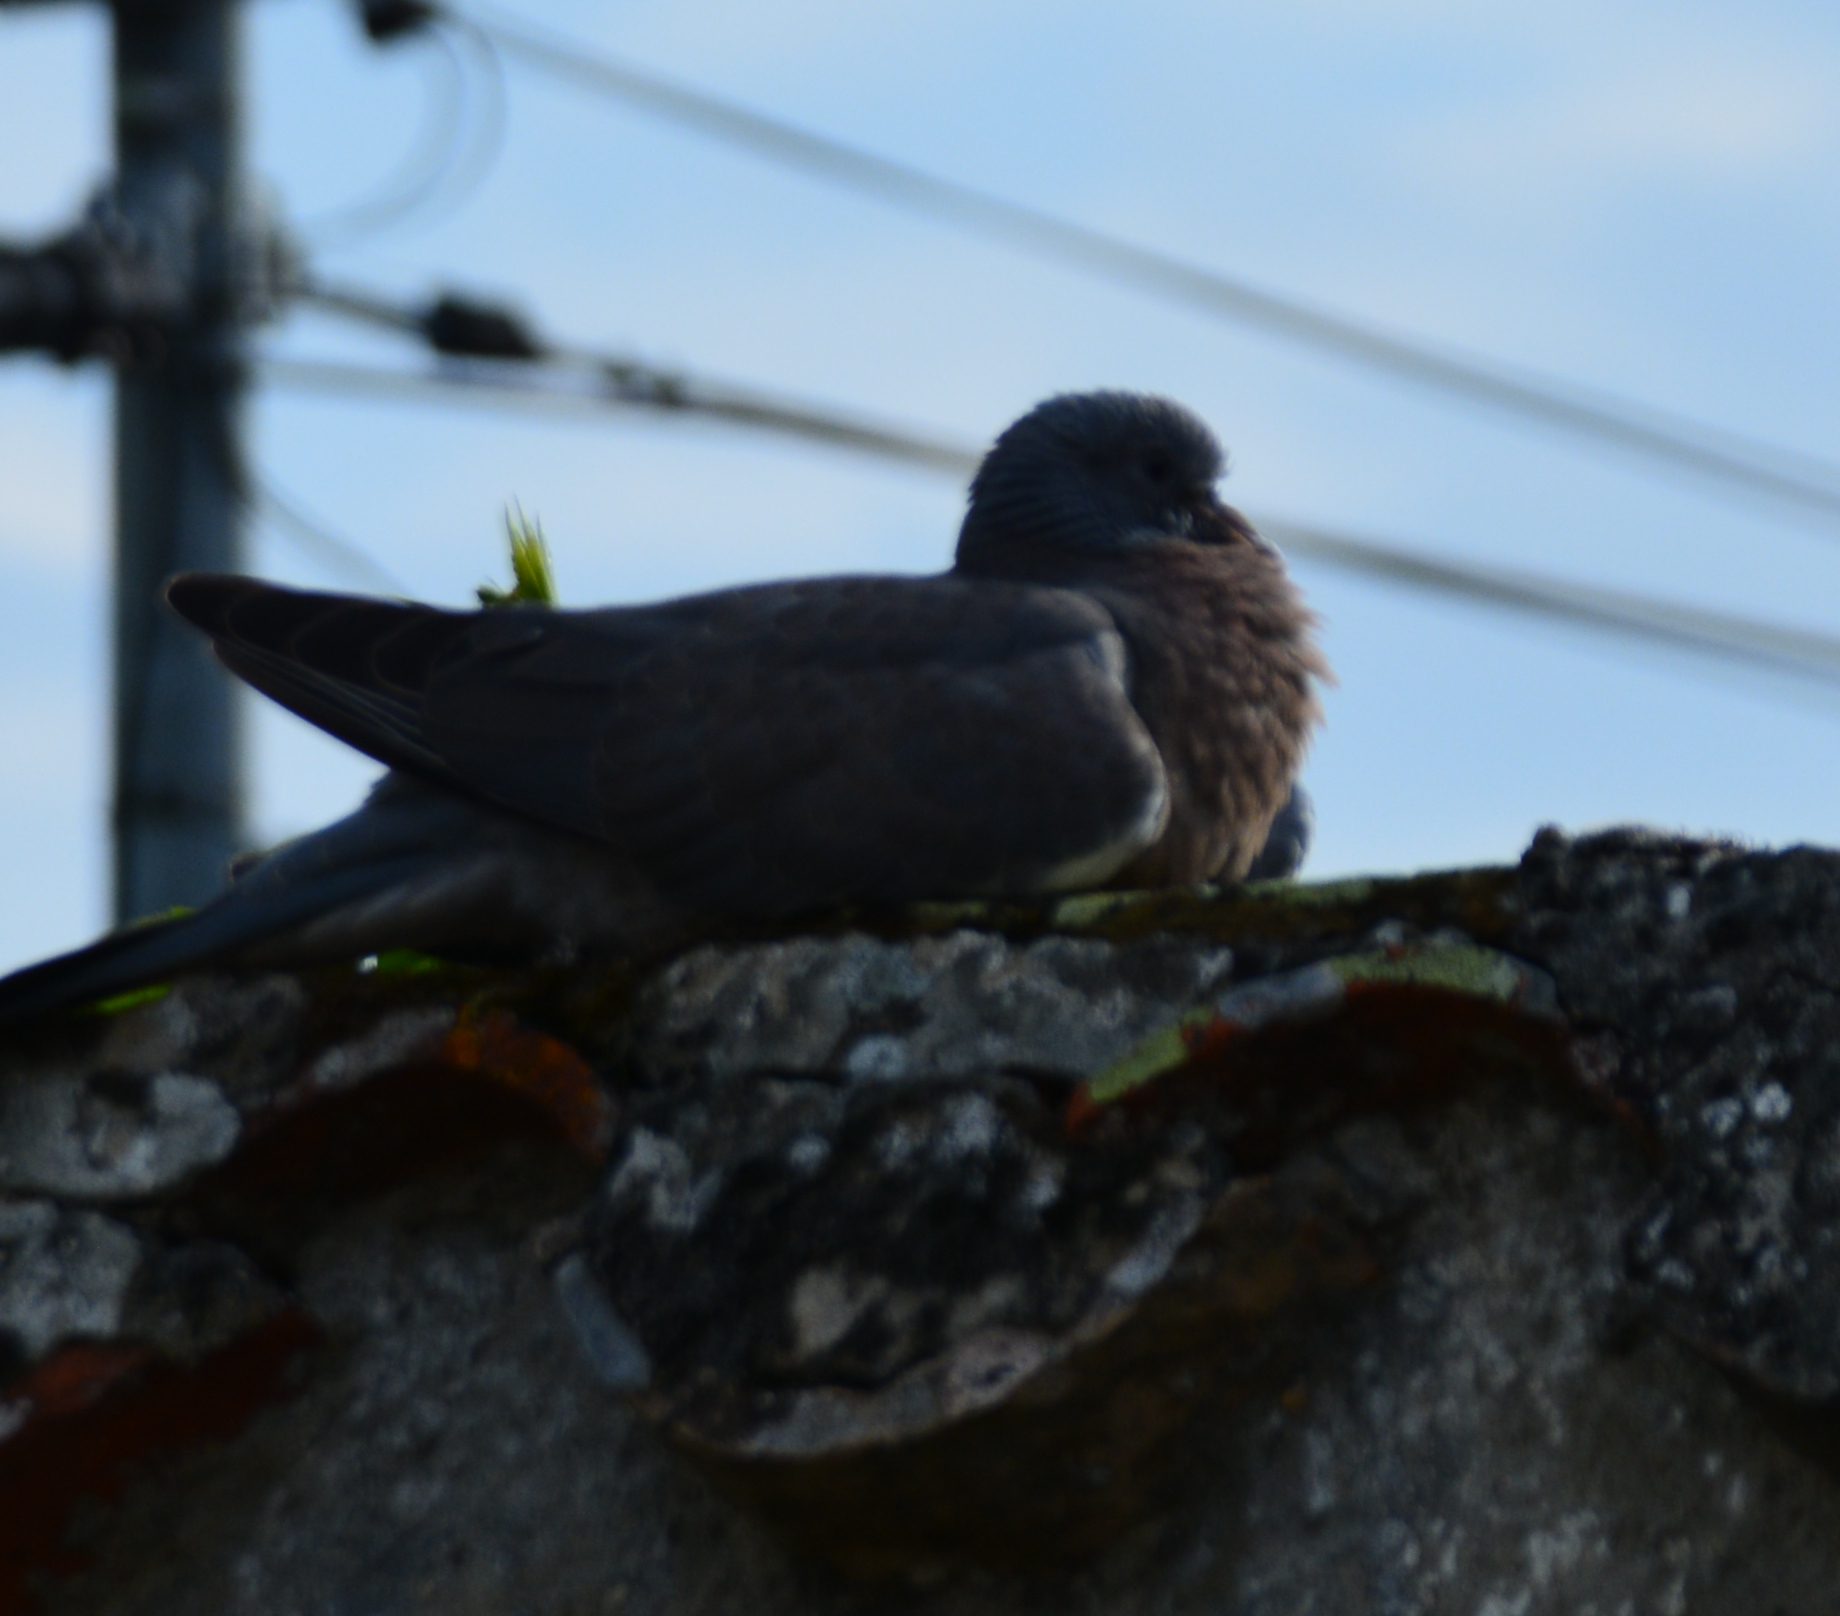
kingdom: Animalia
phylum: Chordata
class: Aves
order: Columbiformes
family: Columbidae
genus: Columba
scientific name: Columba palumbus
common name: Common wood pigeon
